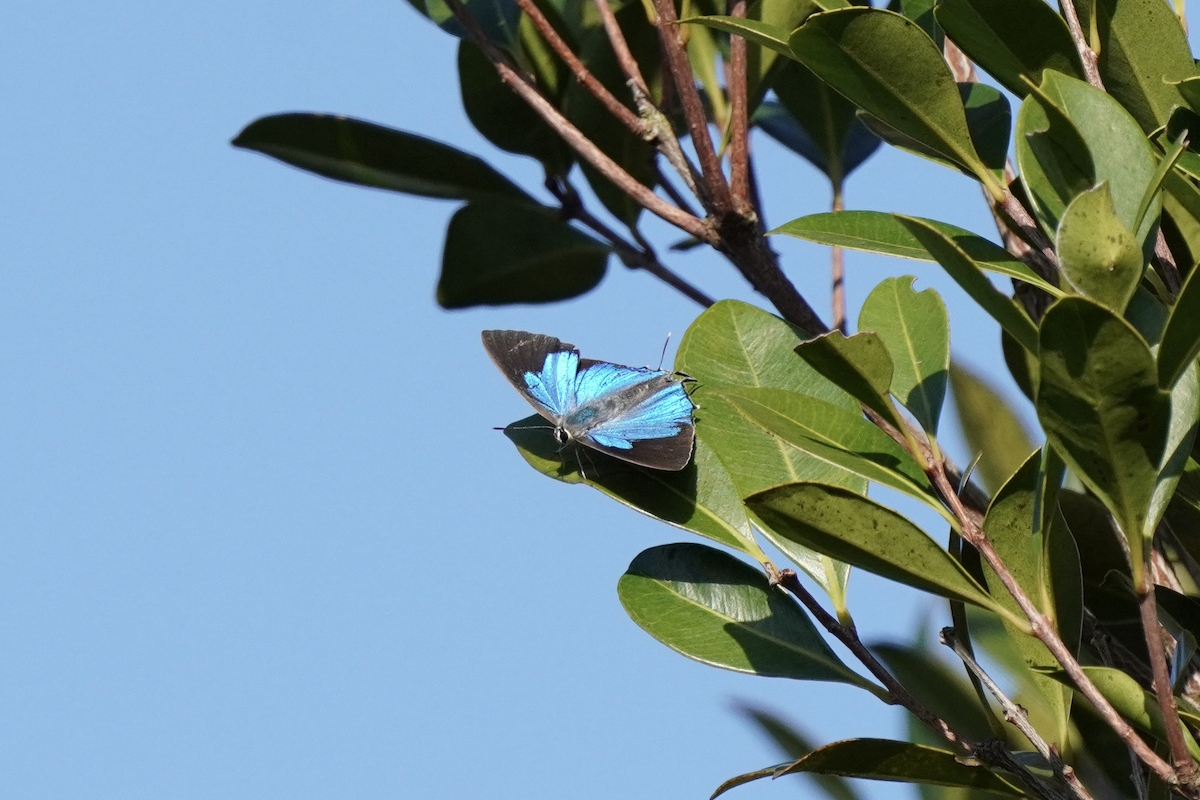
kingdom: Animalia
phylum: Arthropoda
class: Insecta
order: Lepidoptera
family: Lycaenidae
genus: Tajuria
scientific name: Tajuria cippus
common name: Peacock royal
